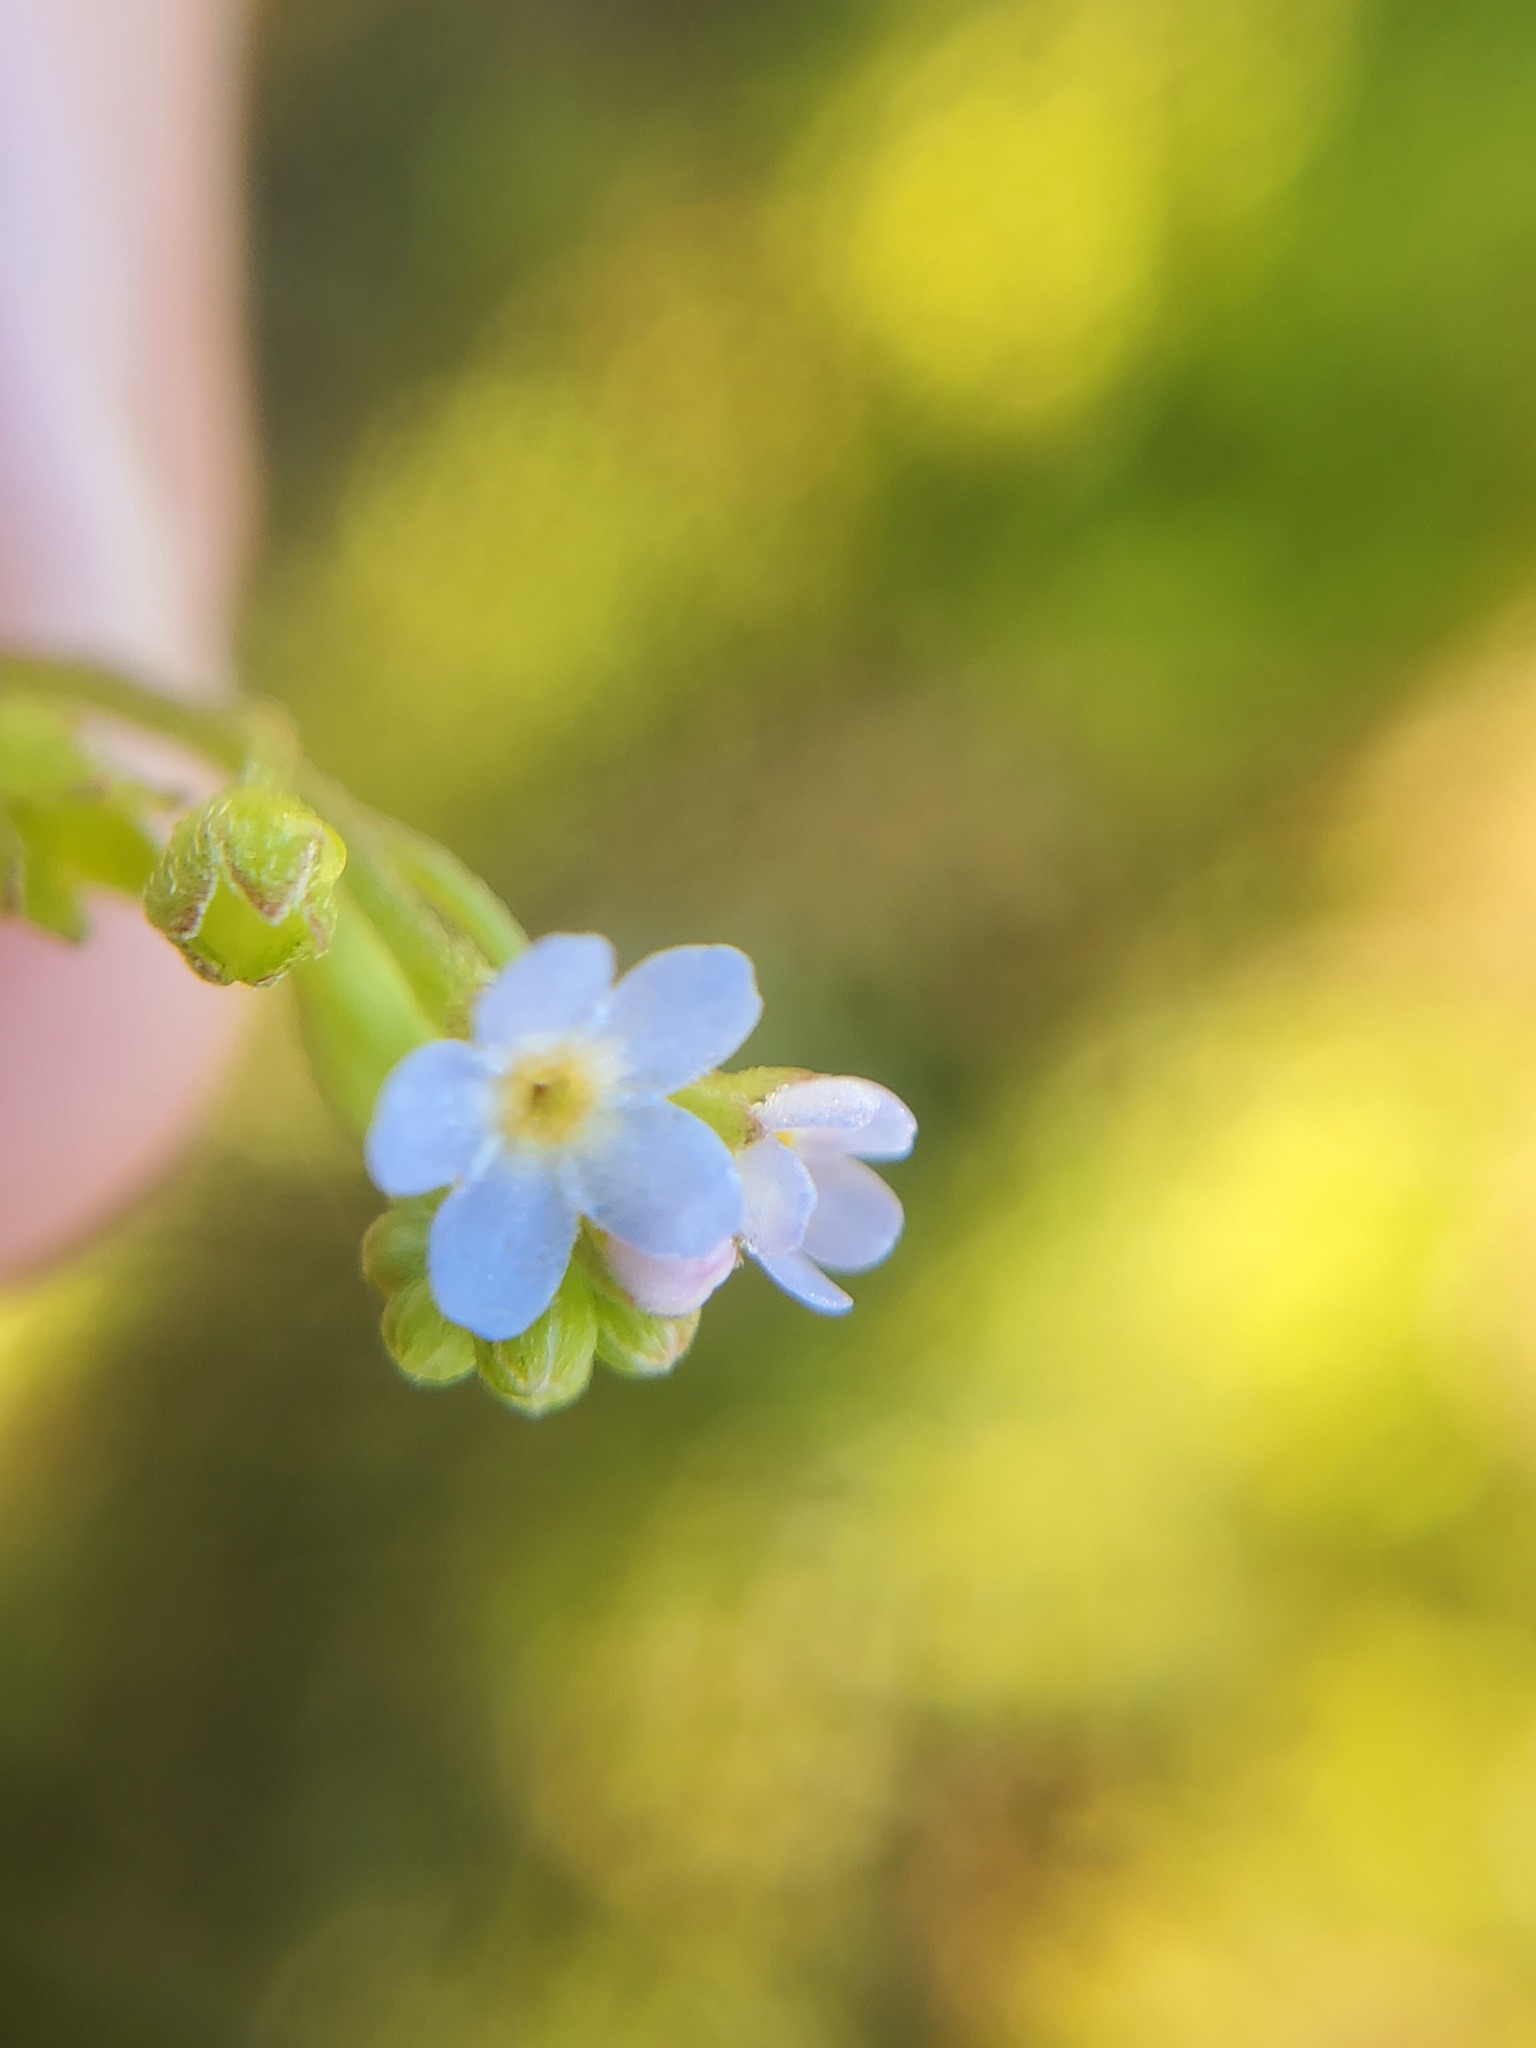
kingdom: Plantae
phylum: Tracheophyta
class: Magnoliopsida
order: Boraginales
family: Boraginaceae
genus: Myosotis
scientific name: Myosotis laxa
